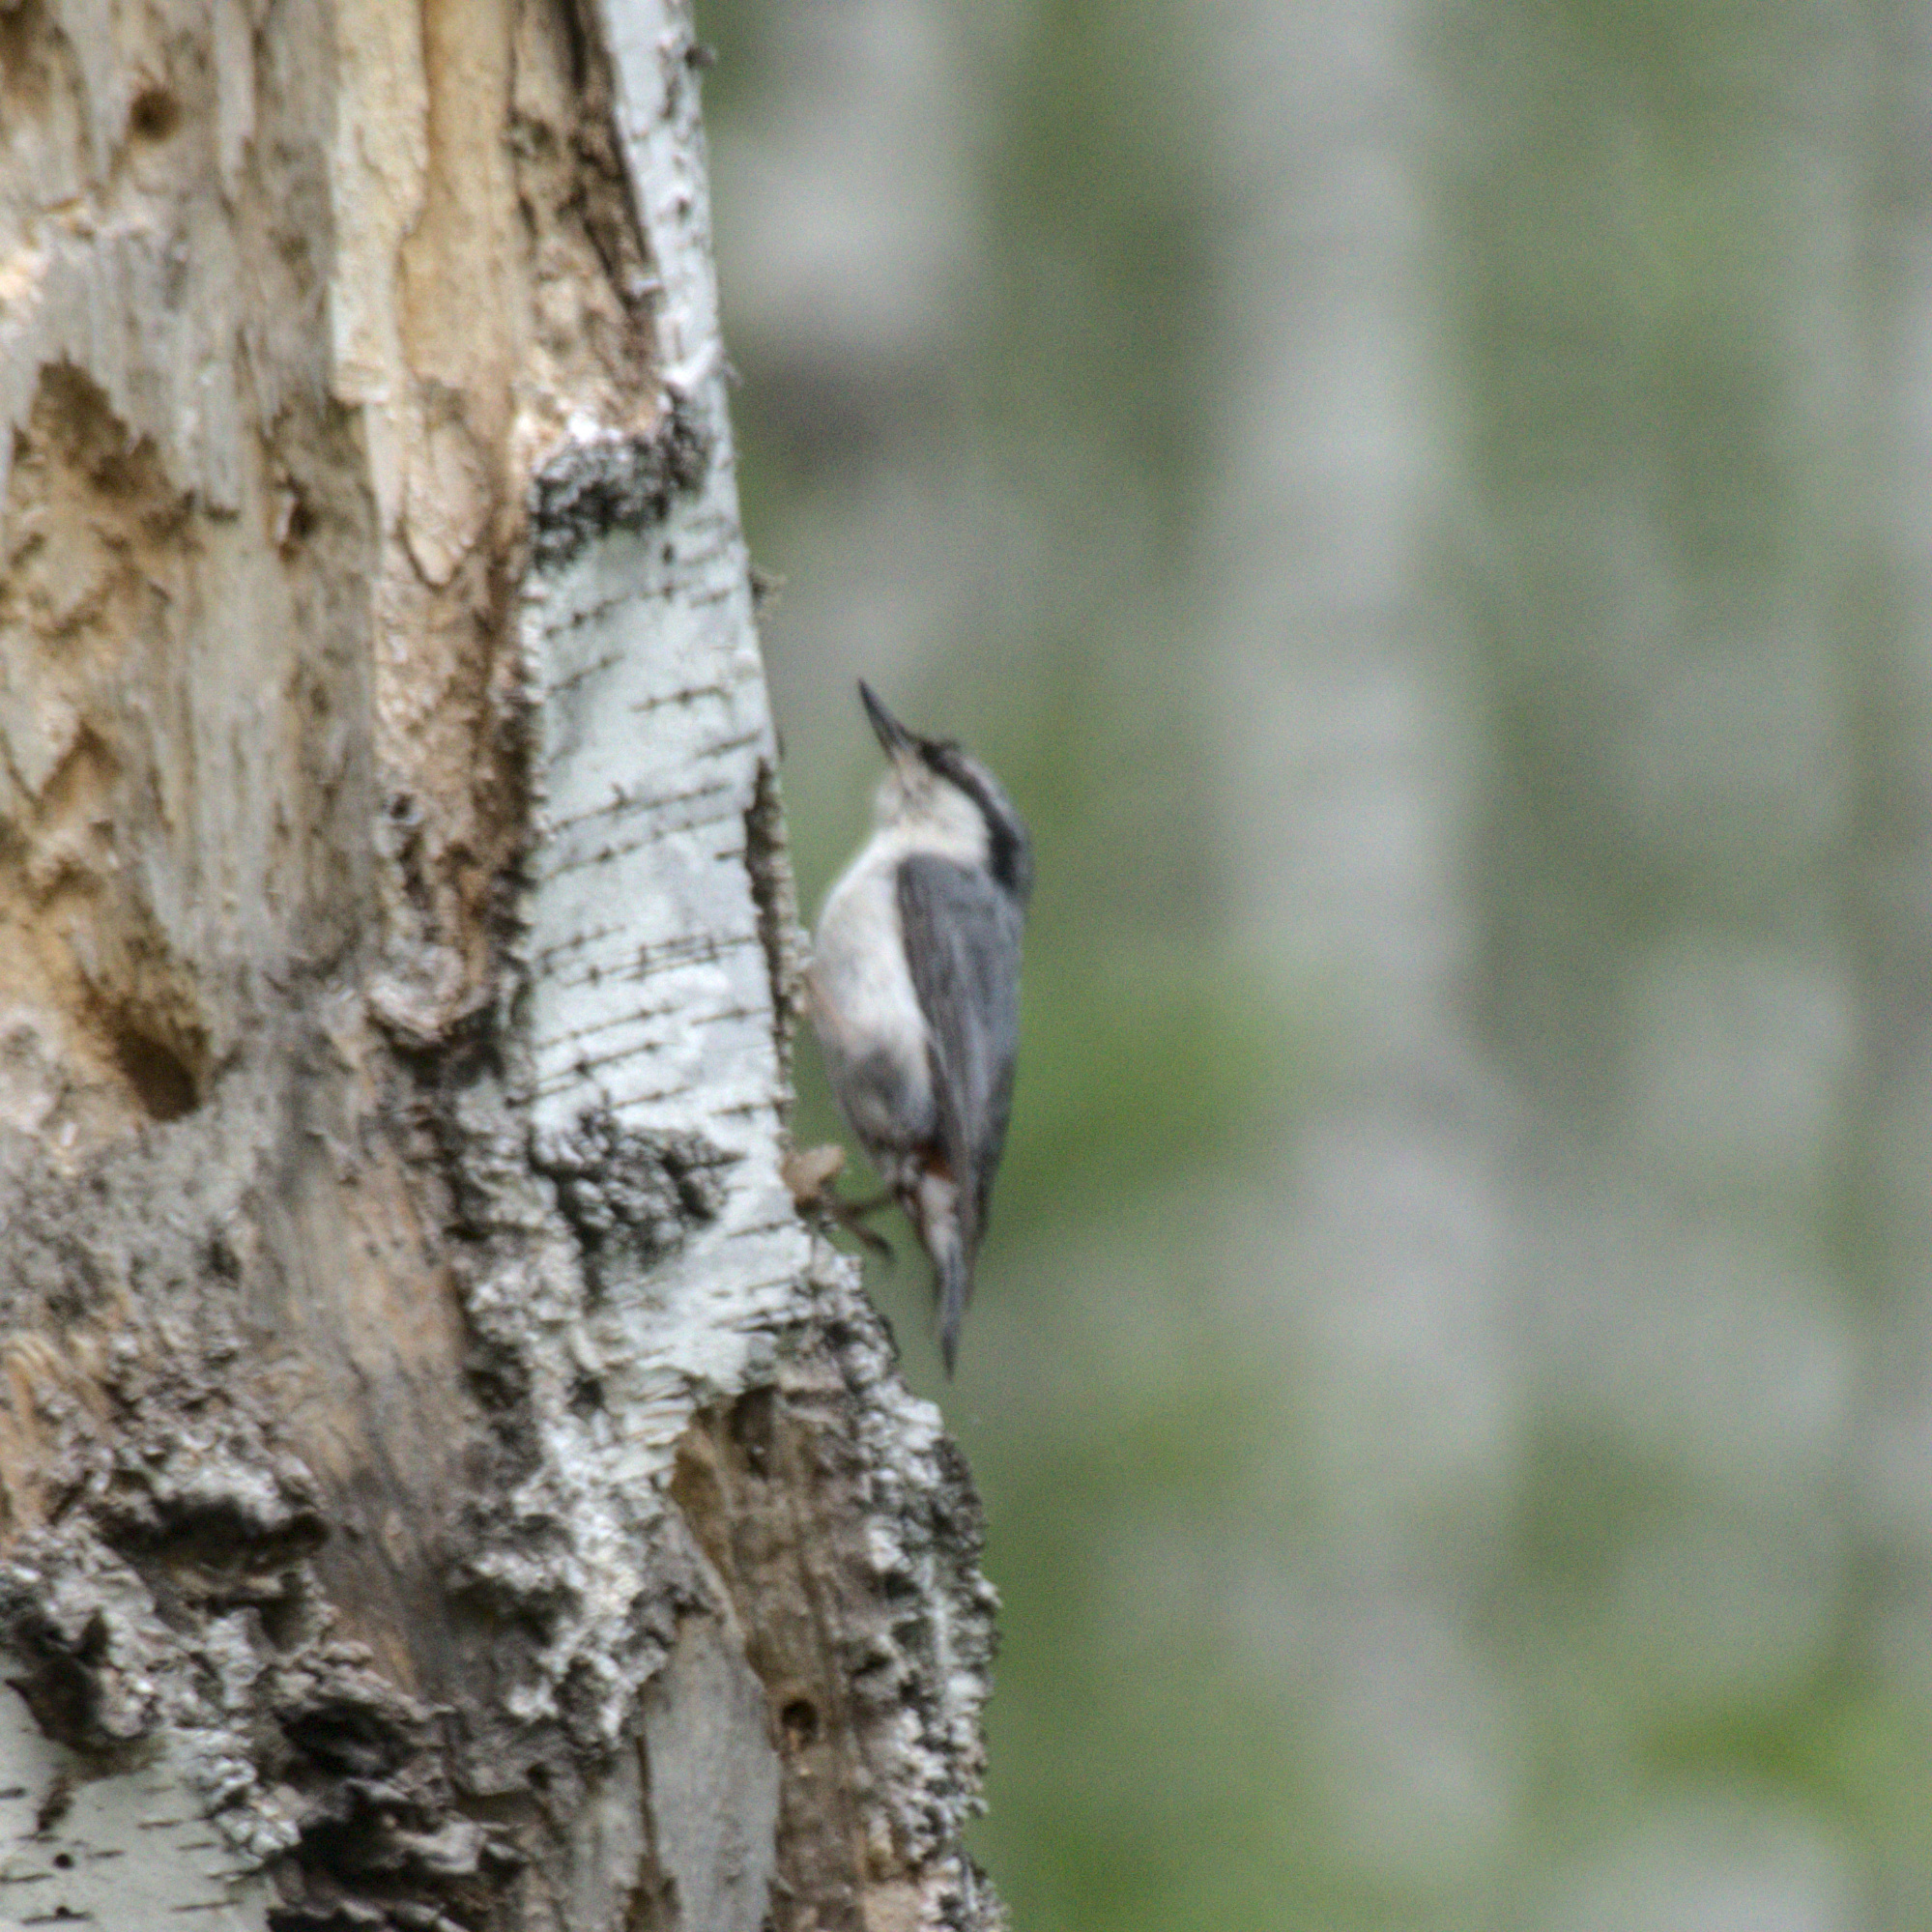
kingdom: Animalia
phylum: Chordata
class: Aves
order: Passeriformes
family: Sittidae
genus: Sitta
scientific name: Sitta europaea
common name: Eurasian nuthatch
